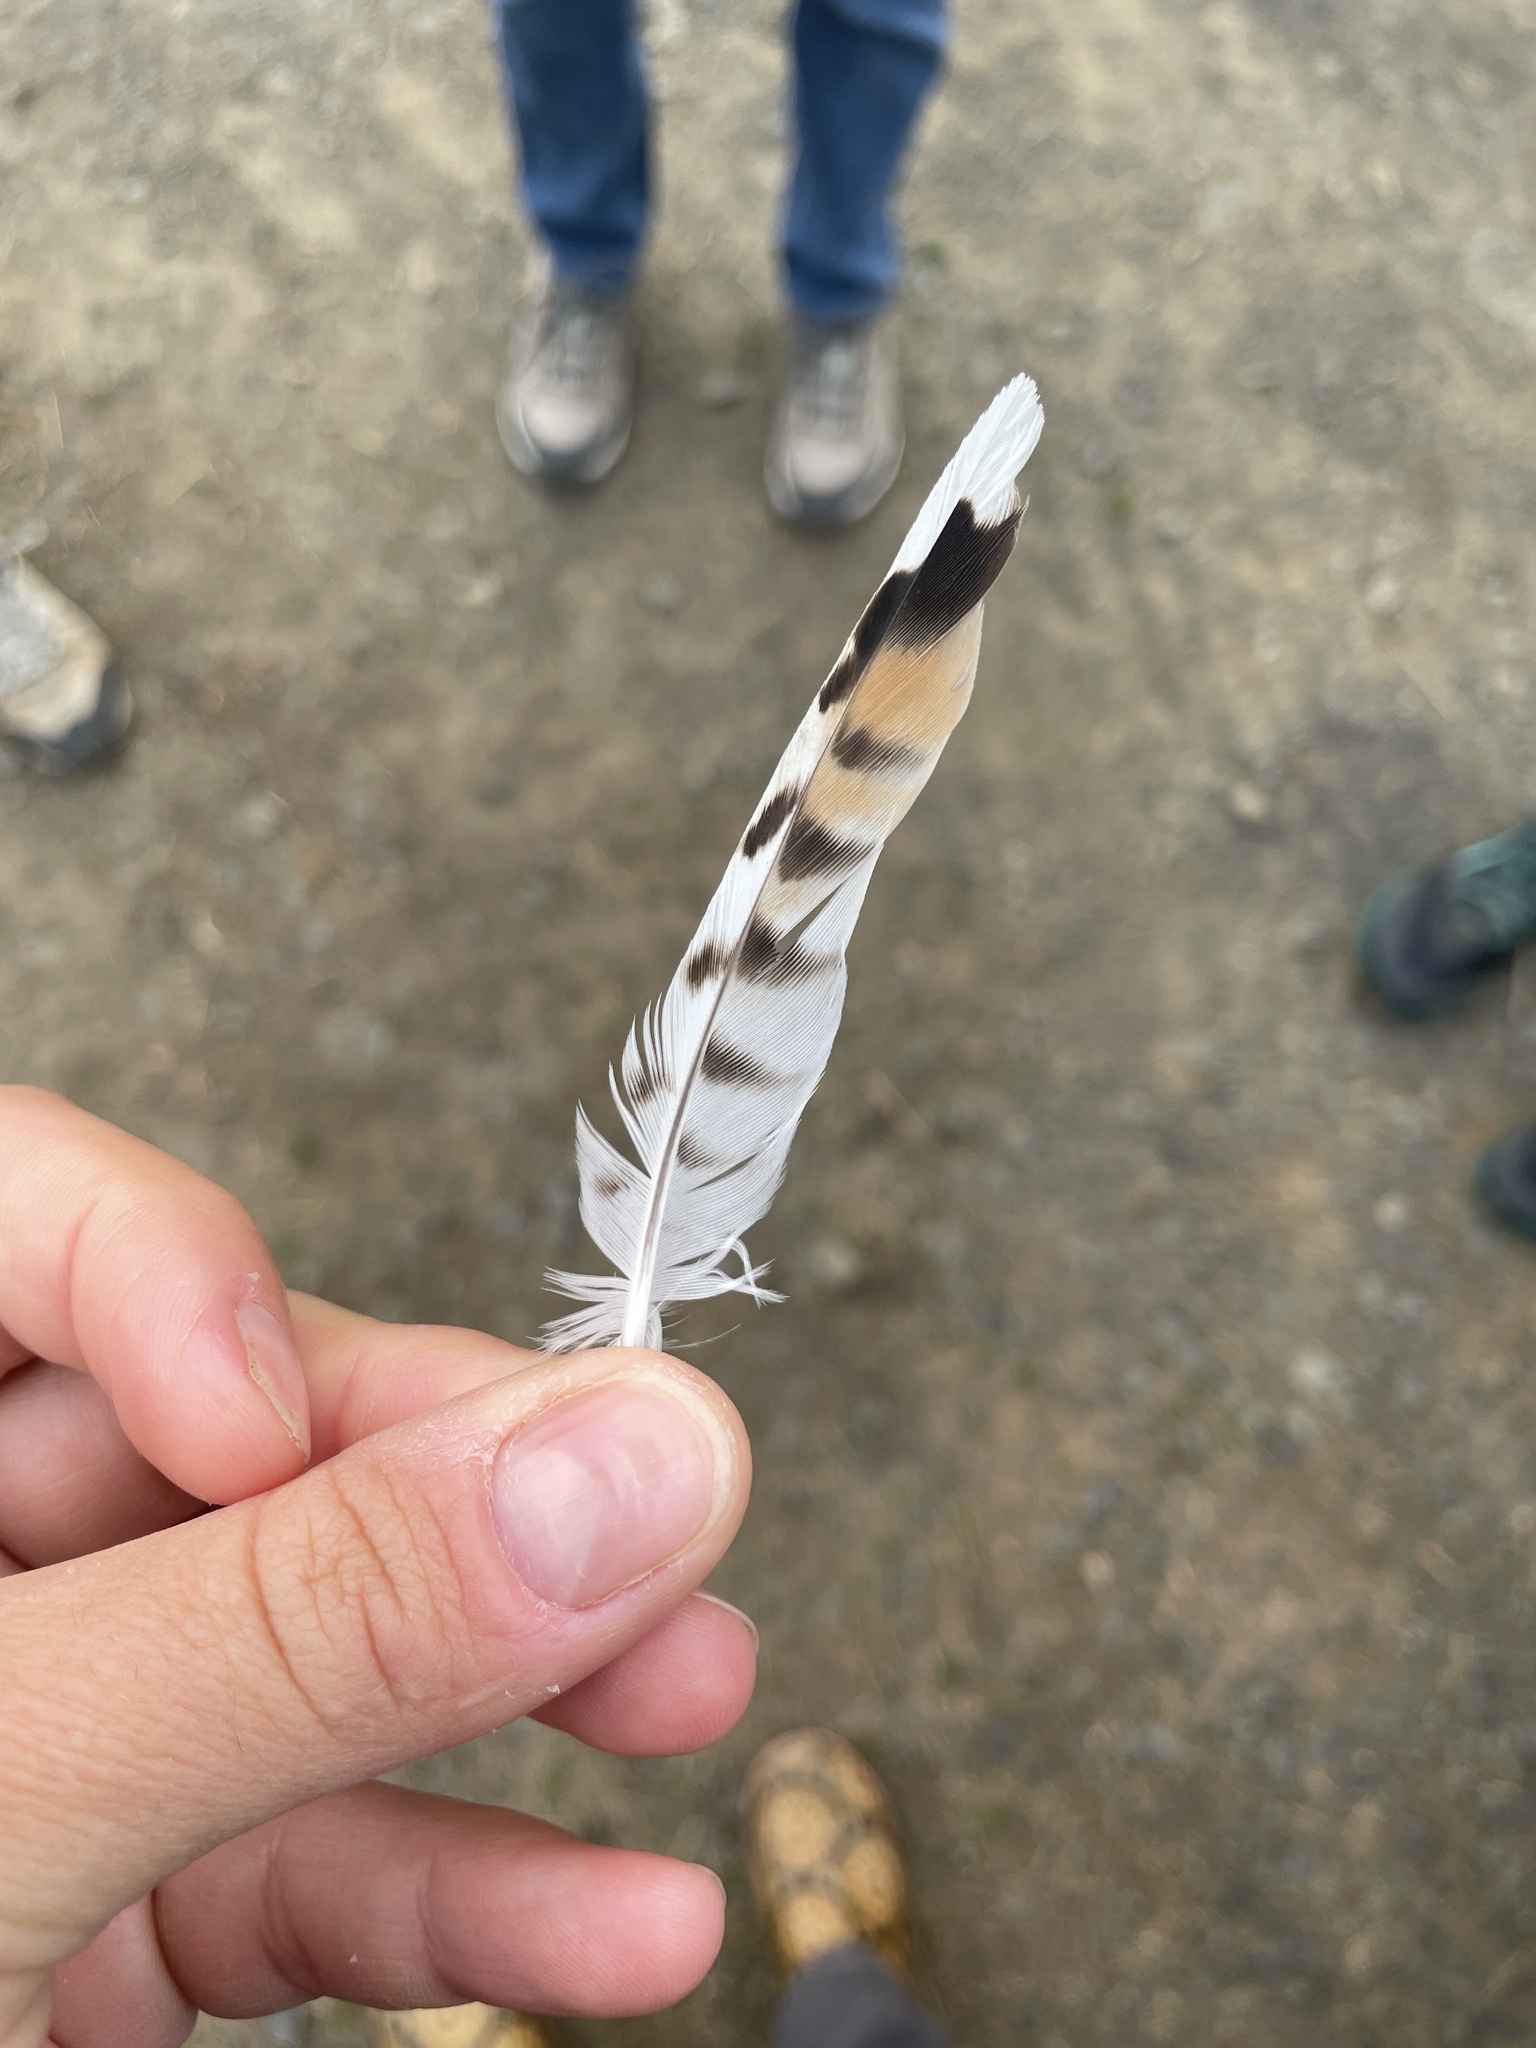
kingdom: Animalia
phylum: Chordata
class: Aves
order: Falconiformes
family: Falconidae
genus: Falco
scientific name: Falco sparverius
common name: American kestrel
